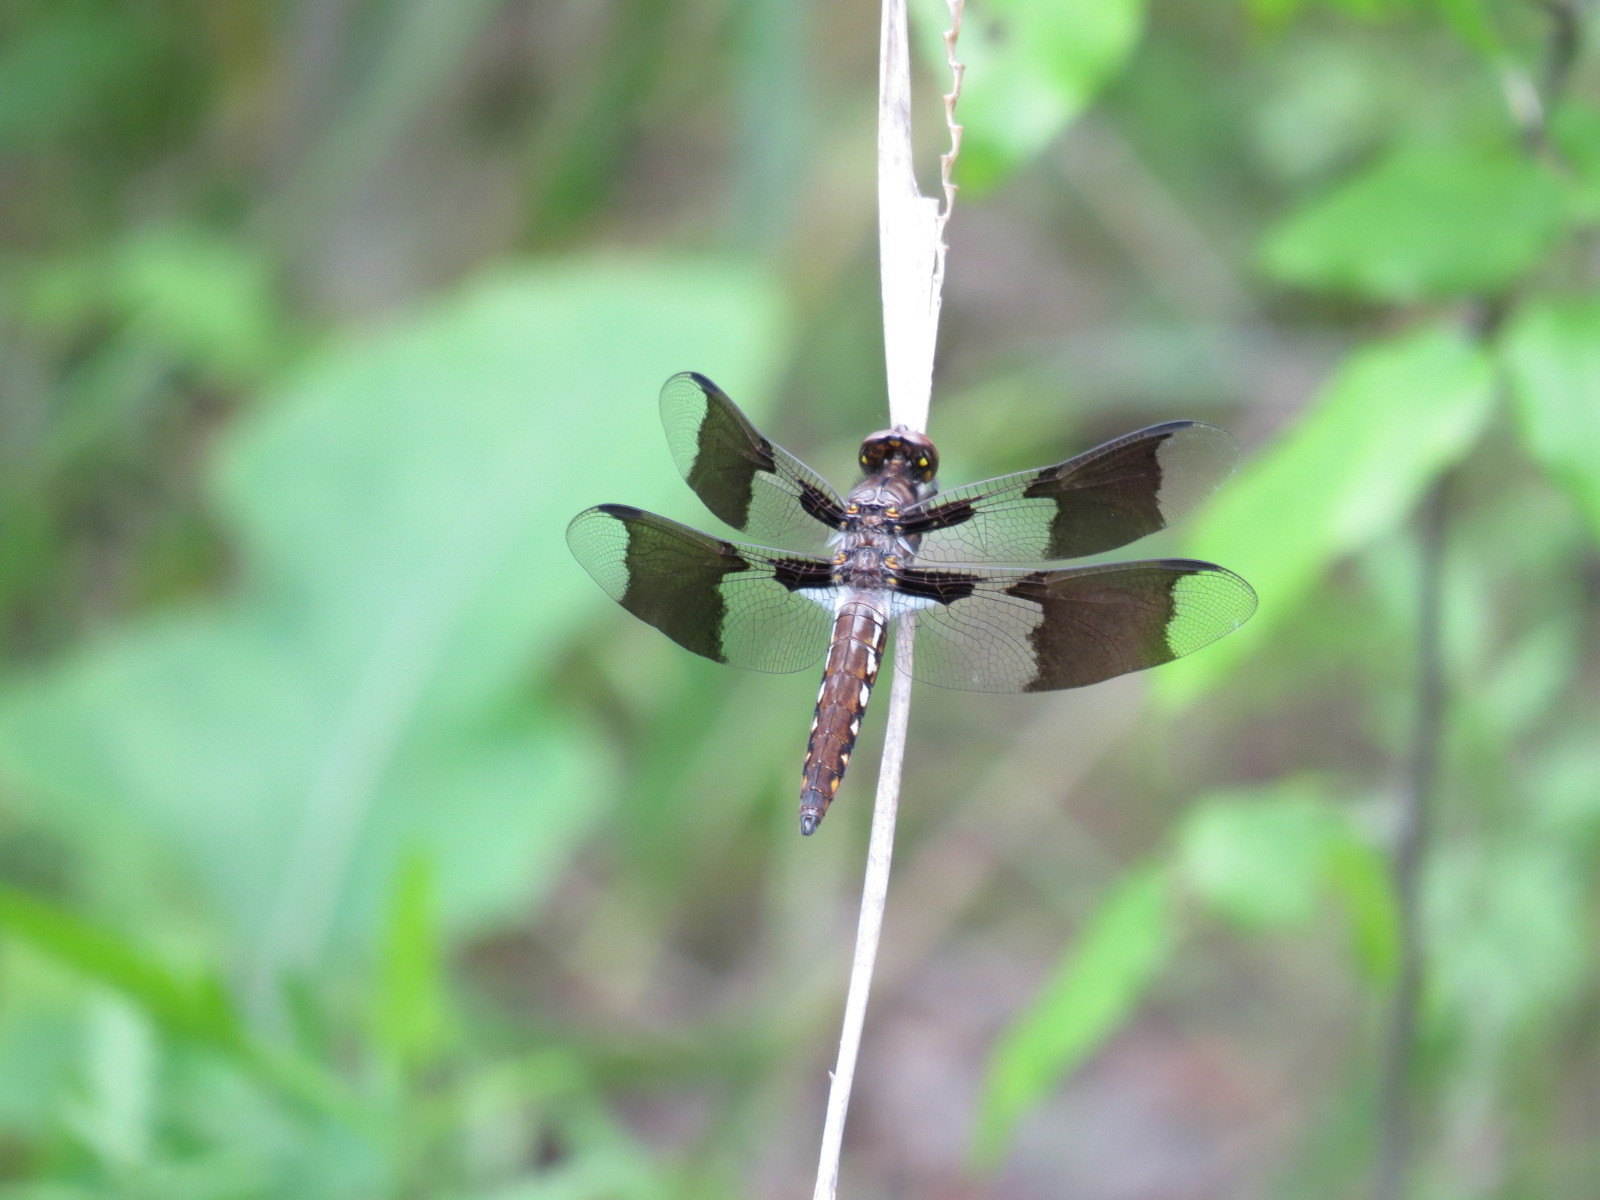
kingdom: Animalia
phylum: Arthropoda
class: Insecta
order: Odonata
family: Libellulidae
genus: Plathemis
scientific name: Plathemis lydia
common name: Common whitetail
